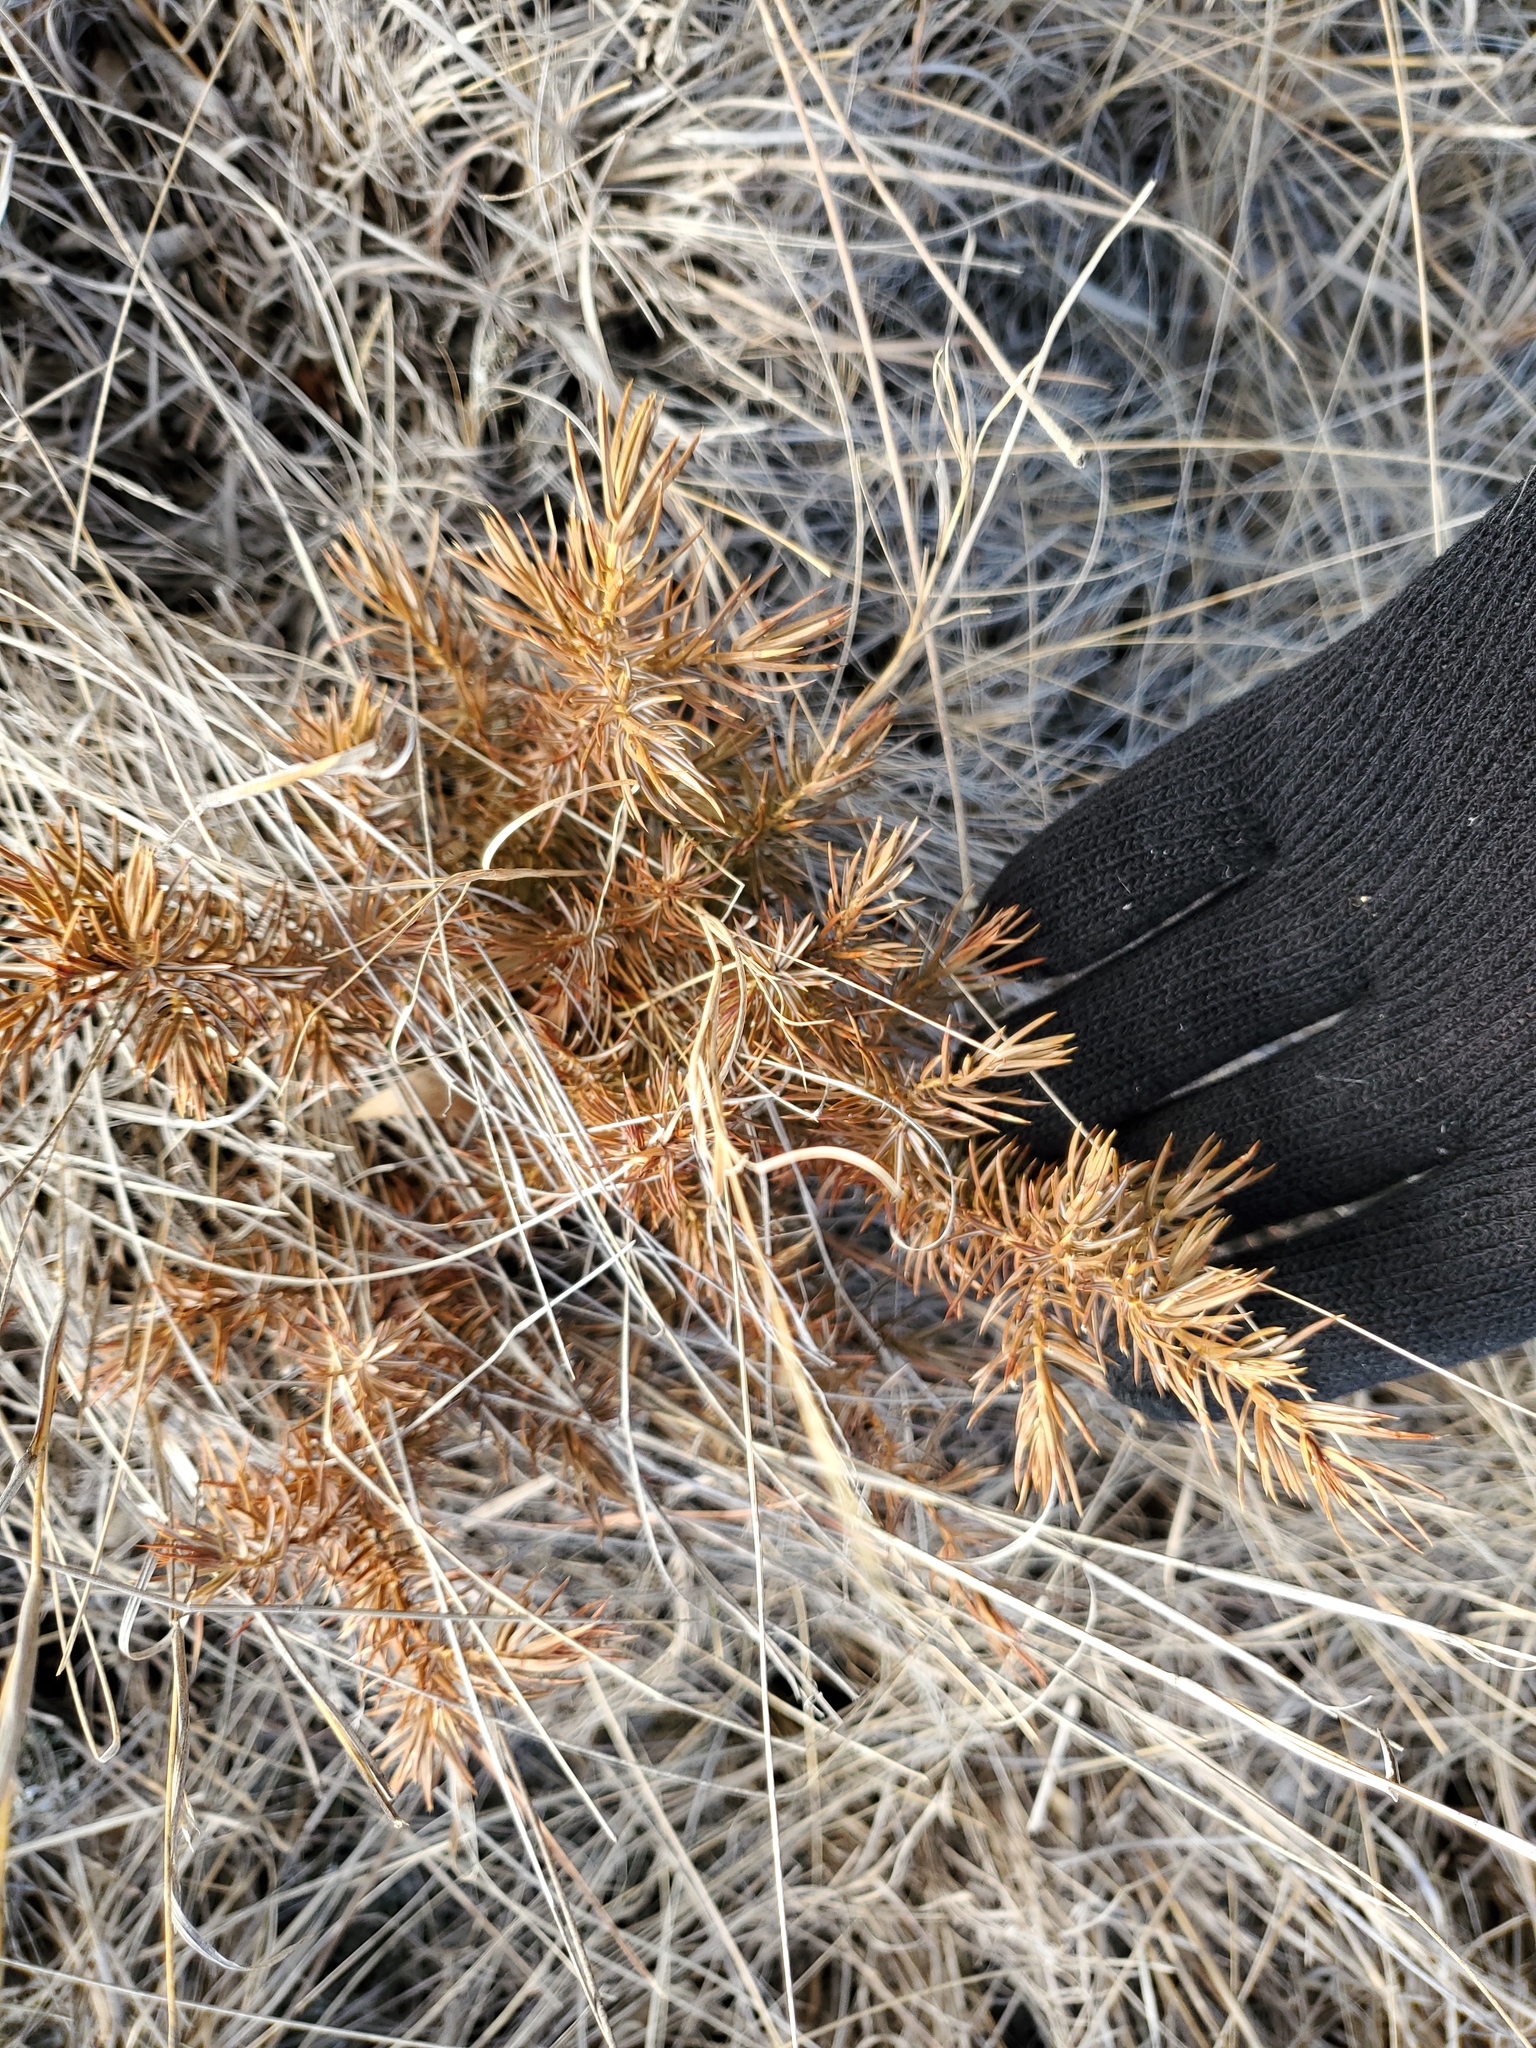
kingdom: Plantae
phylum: Tracheophyta
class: Pinopsida
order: Pinales
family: Cupressaceae
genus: Juniperus
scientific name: Juniperus communis
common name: Common juniper
